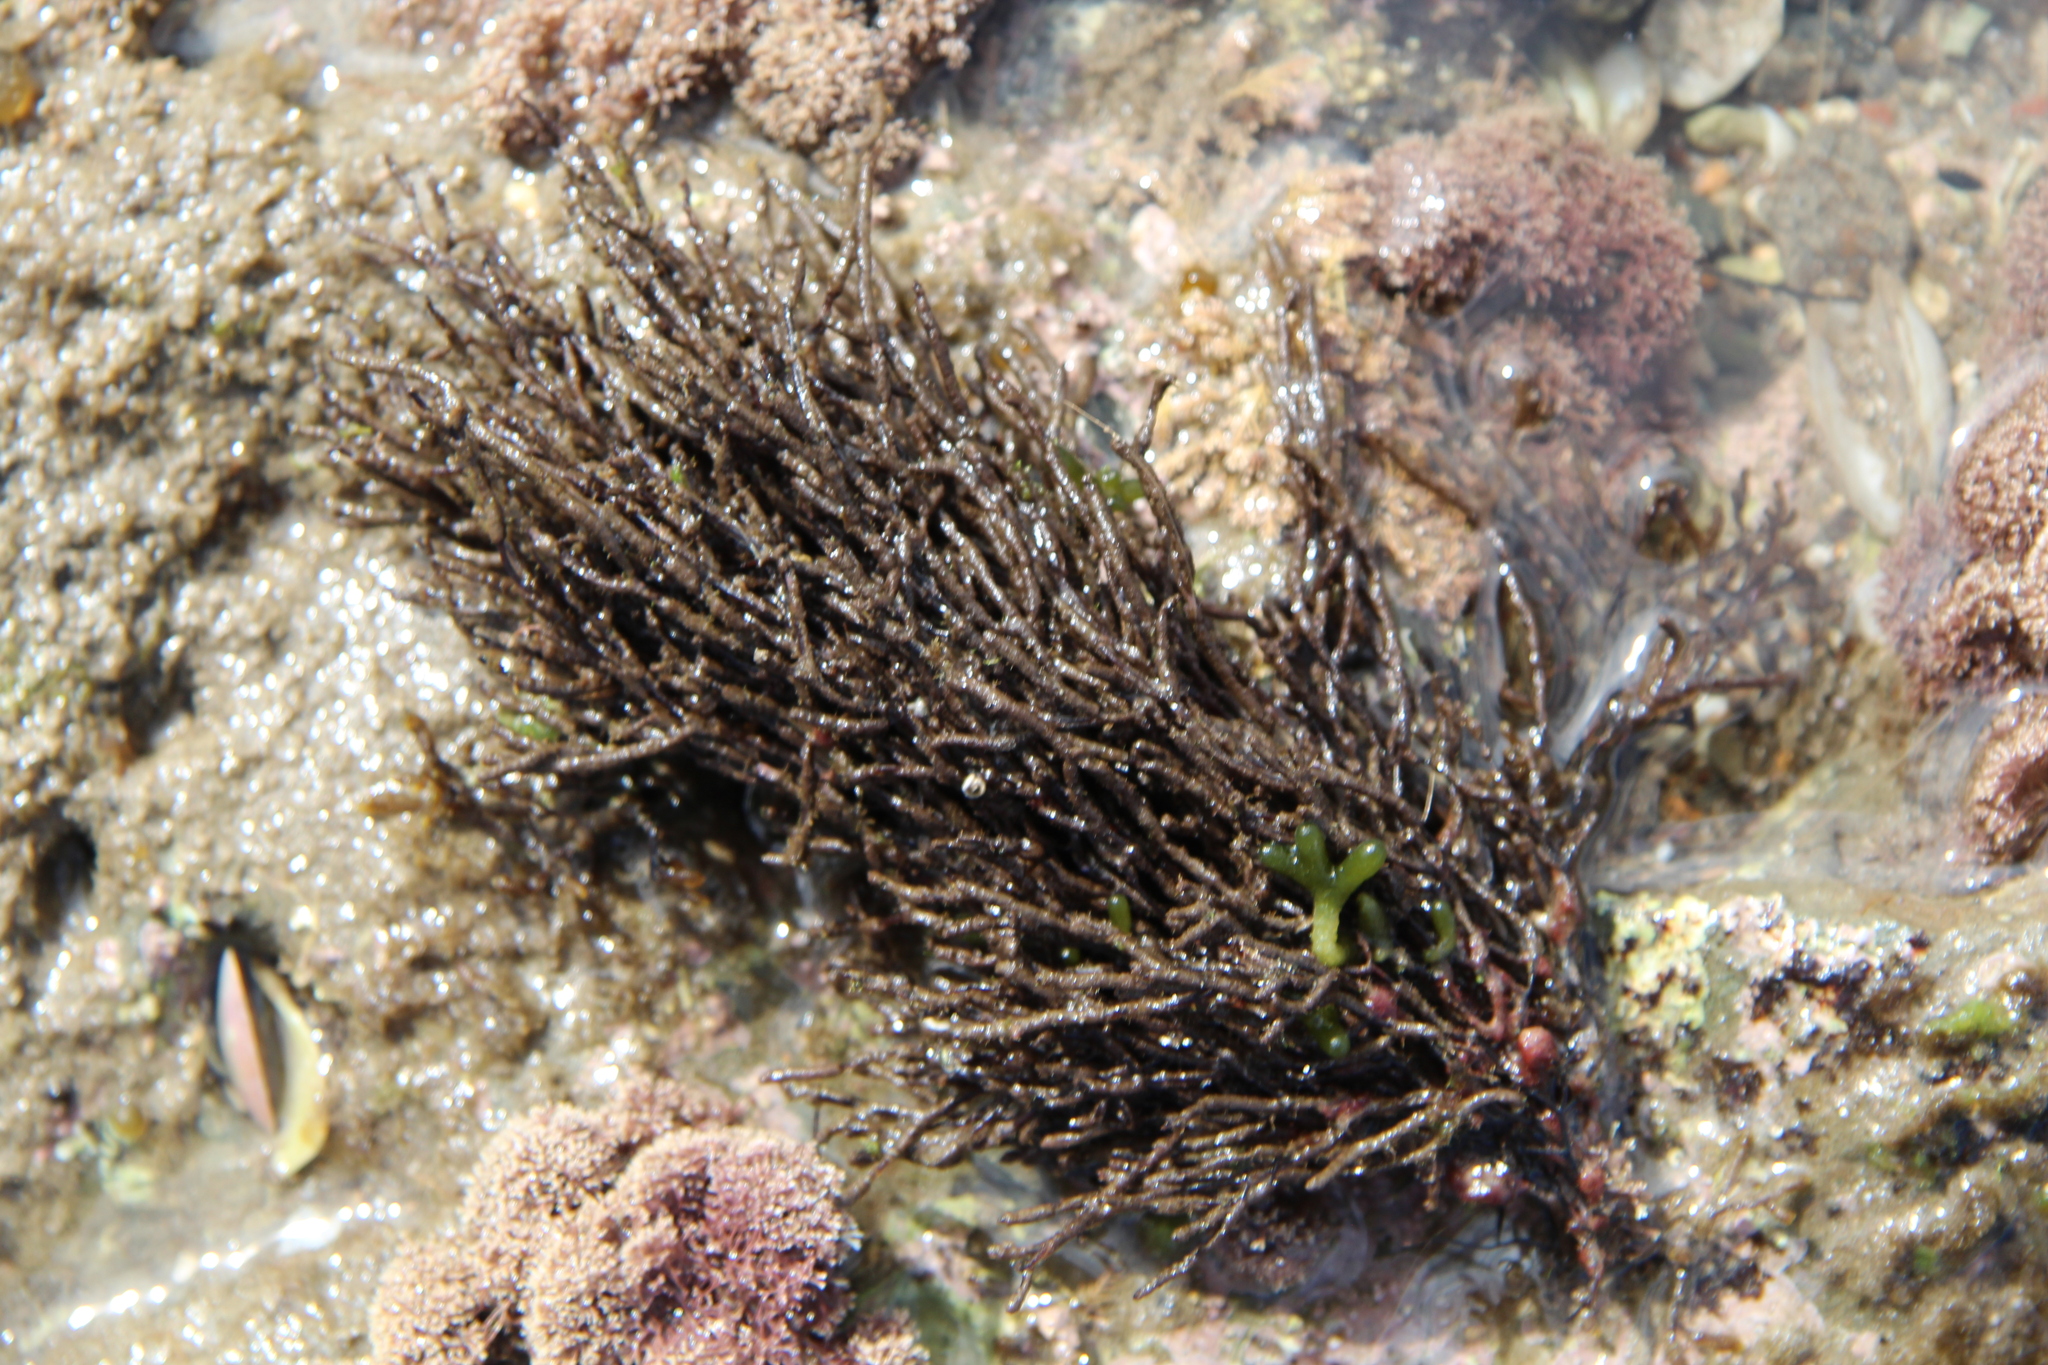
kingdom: Chromista
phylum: Ochrophyta
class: Phaeophyceae
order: Sphacelariales
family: Cladostephaceae
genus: Cladostephus
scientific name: Cladostephus hirsutus
